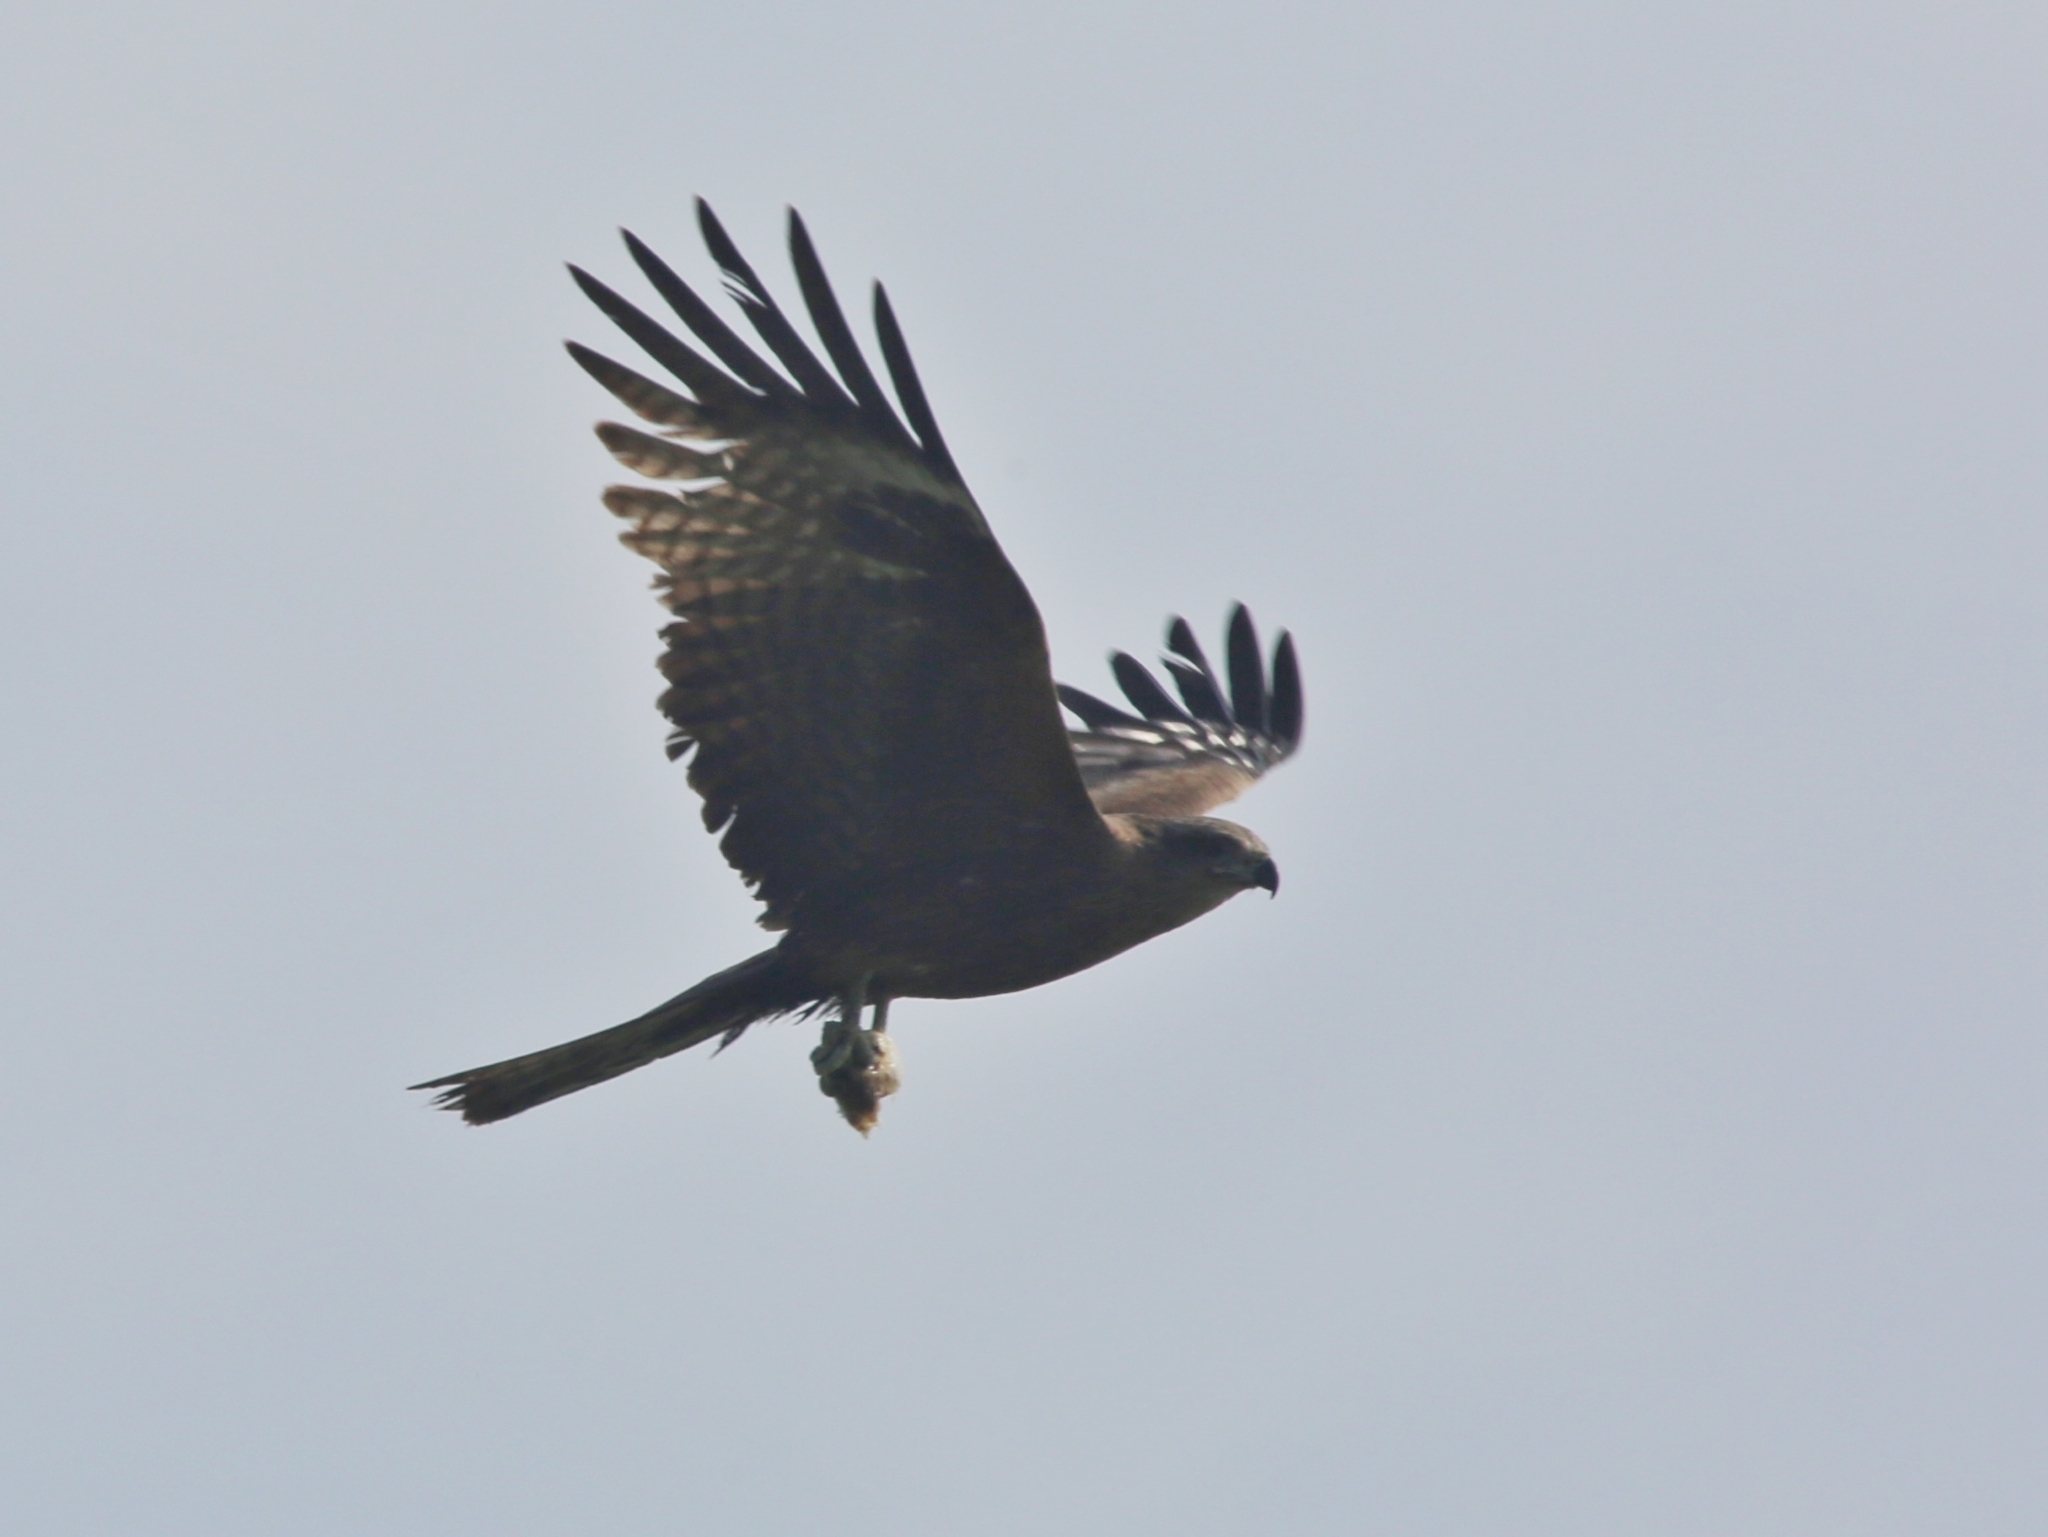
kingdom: Animalia
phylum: Chordata
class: Aves
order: Accipitriformes
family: Accipitridae
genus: Milvus
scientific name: Milvus migrans
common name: Black kite
